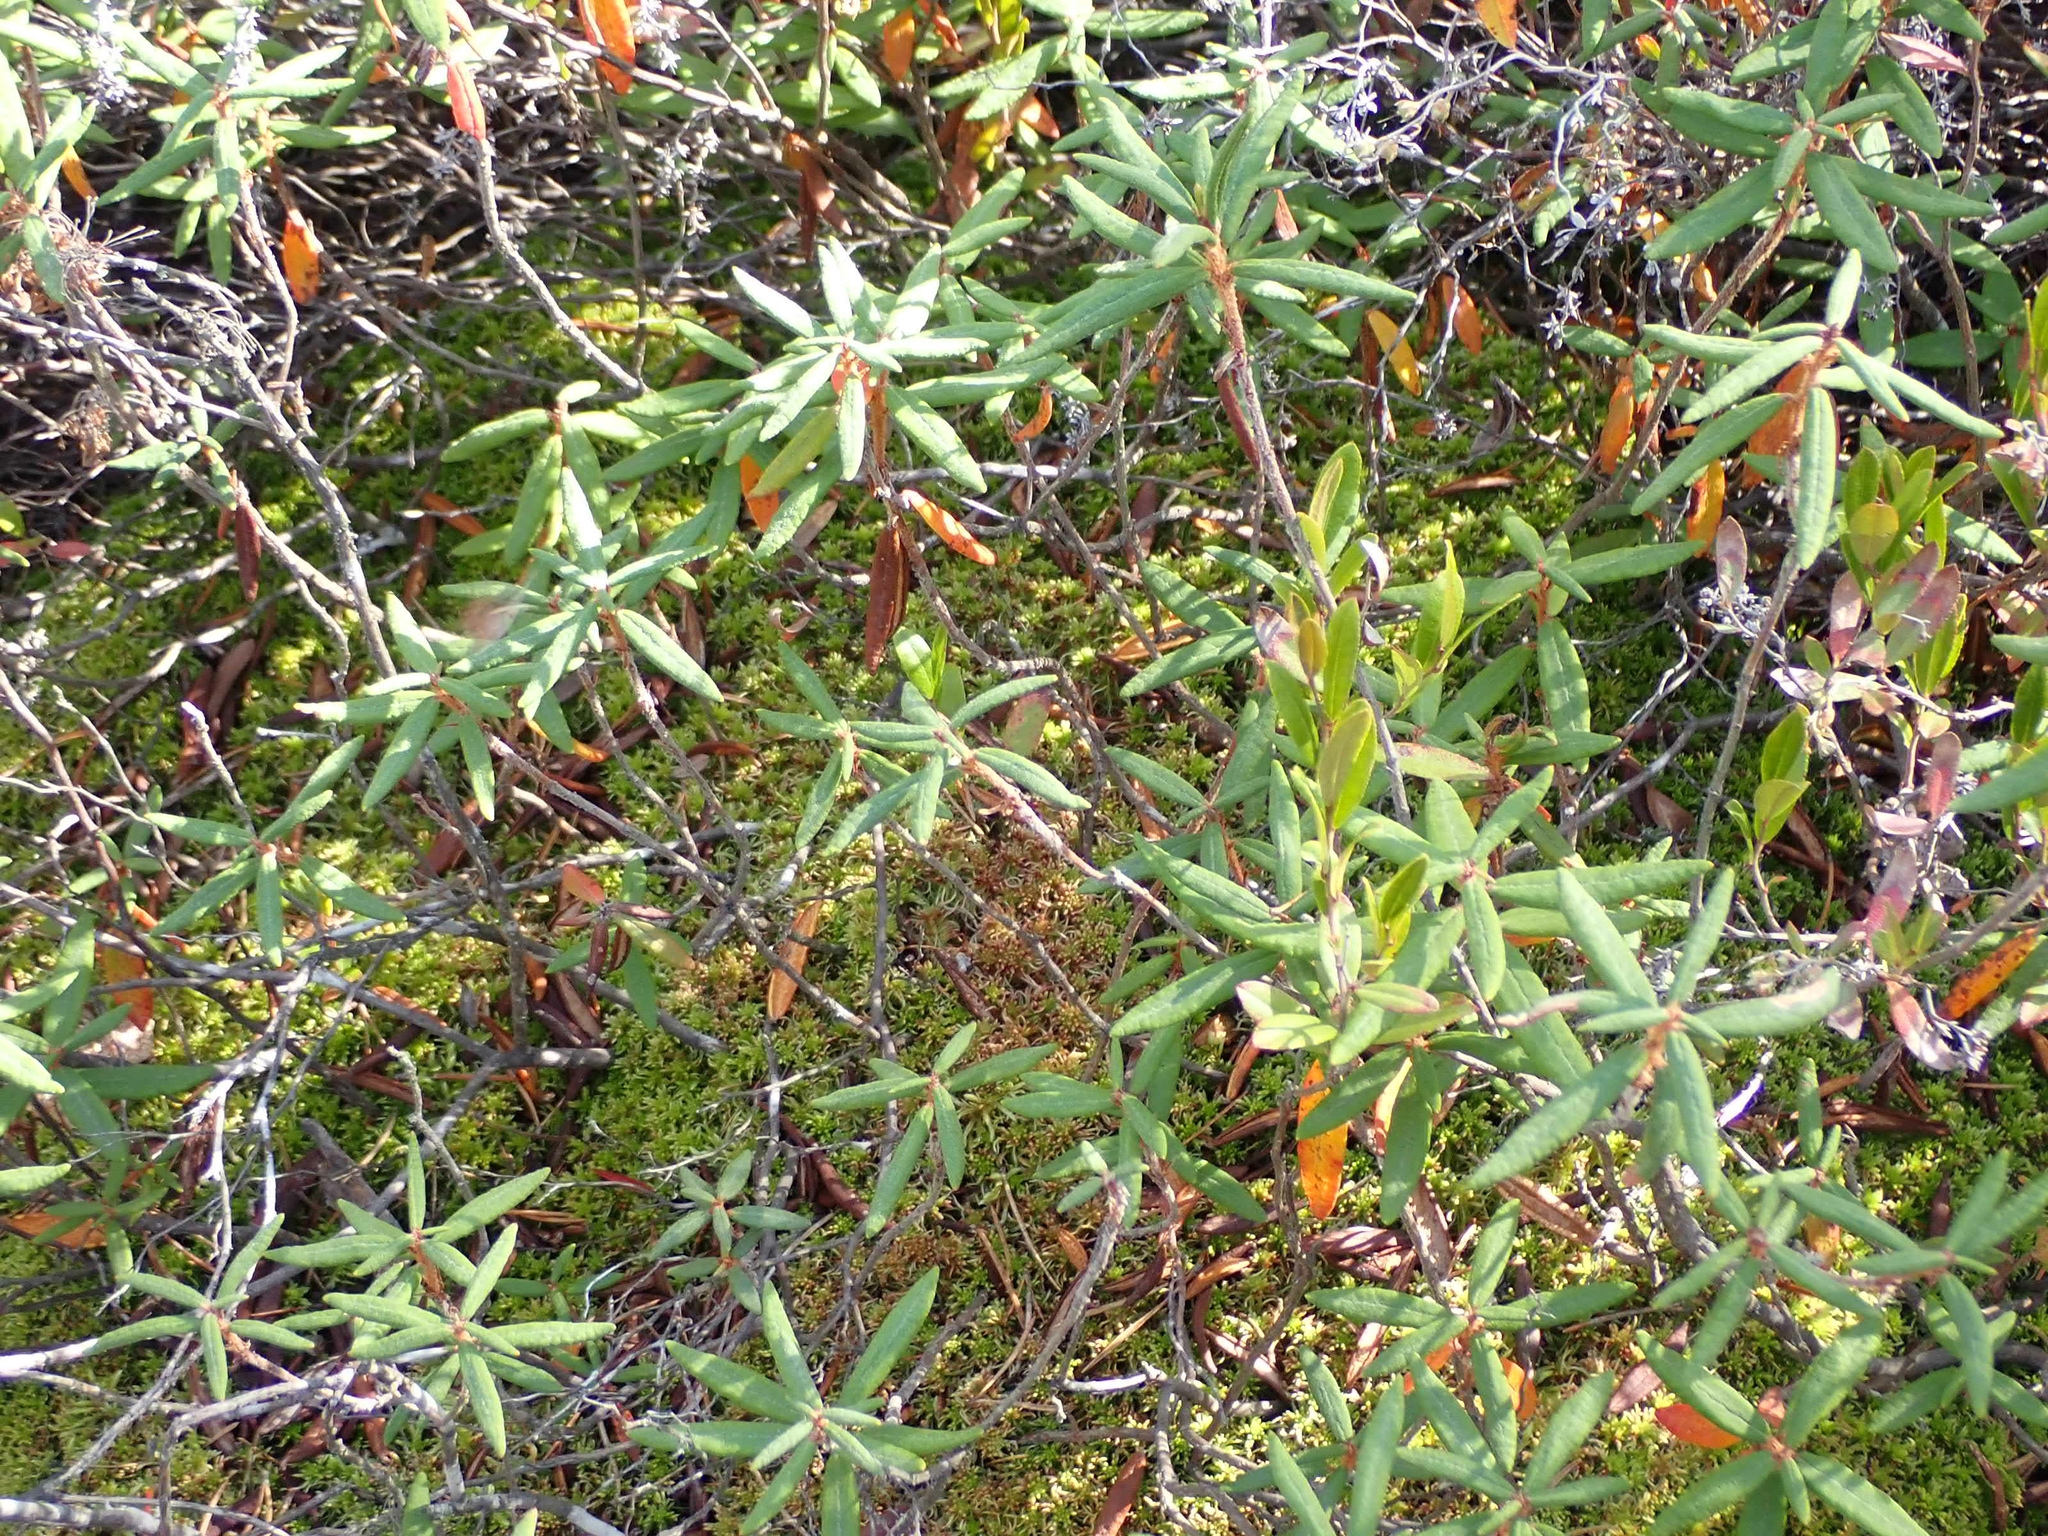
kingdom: Plantae
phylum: Tracheophyta
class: Magnoliopsida
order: Ericales
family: Ericaceae
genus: Rhododendron
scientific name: Rhododendron groenlandicum
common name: Bog labrador tea
